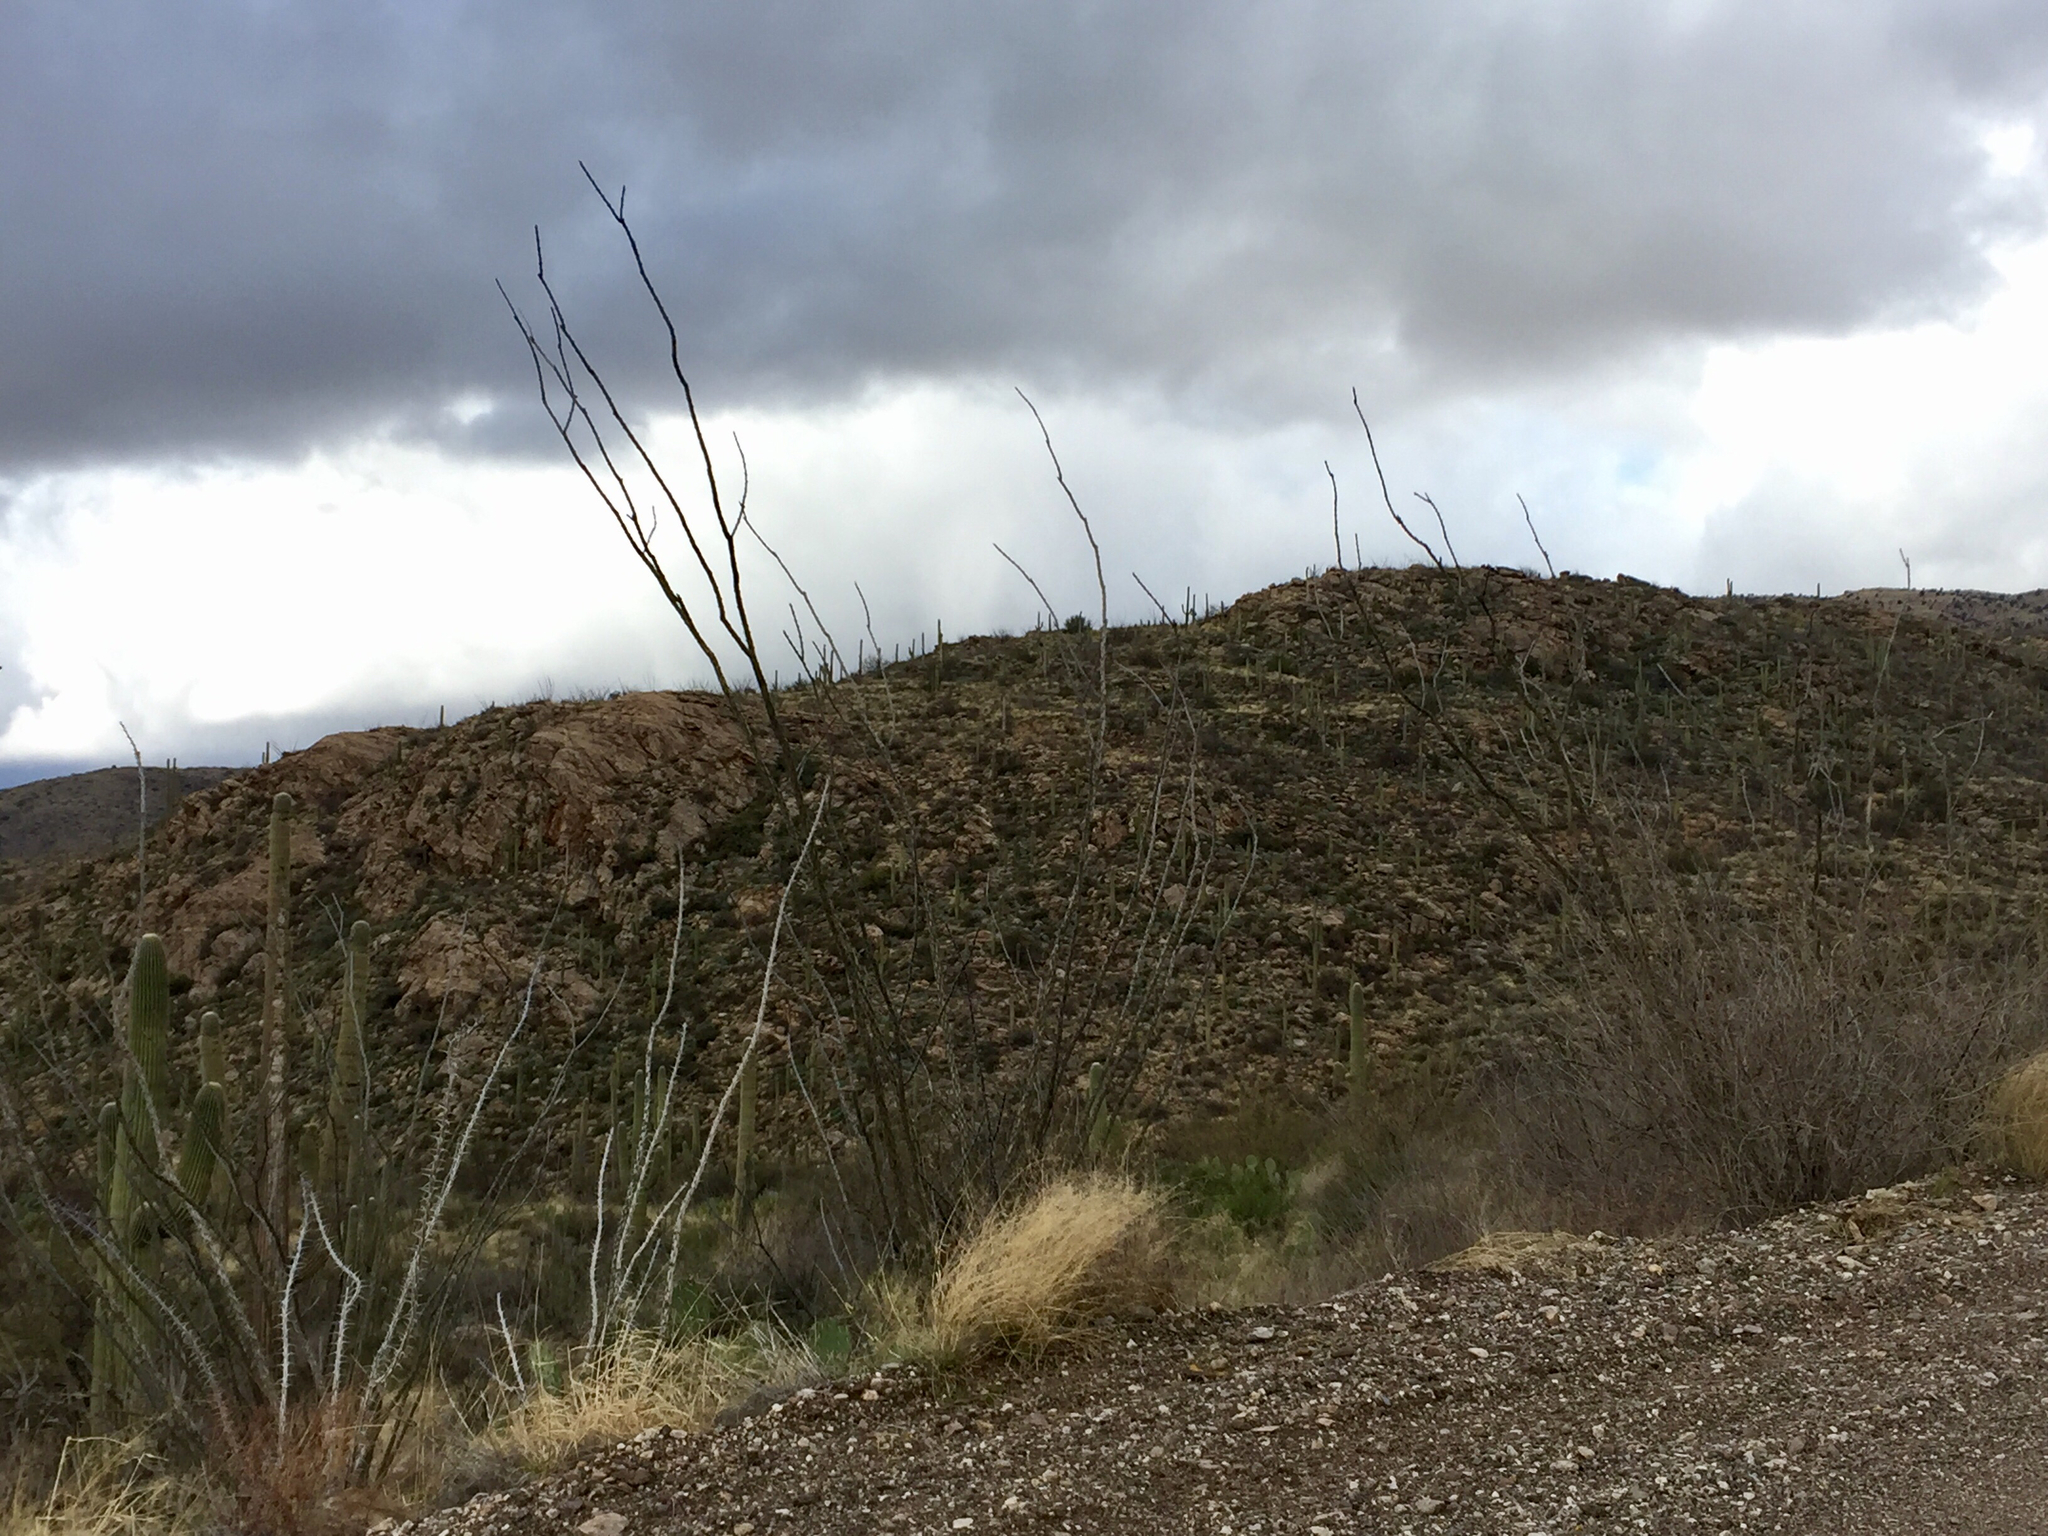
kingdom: Plantae
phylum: Tracheophyta
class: Magnoliopsida
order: Ericales
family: Fouquieriaceae
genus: Fouquieria
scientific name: Fouquieria splendens
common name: Vine-cactus
